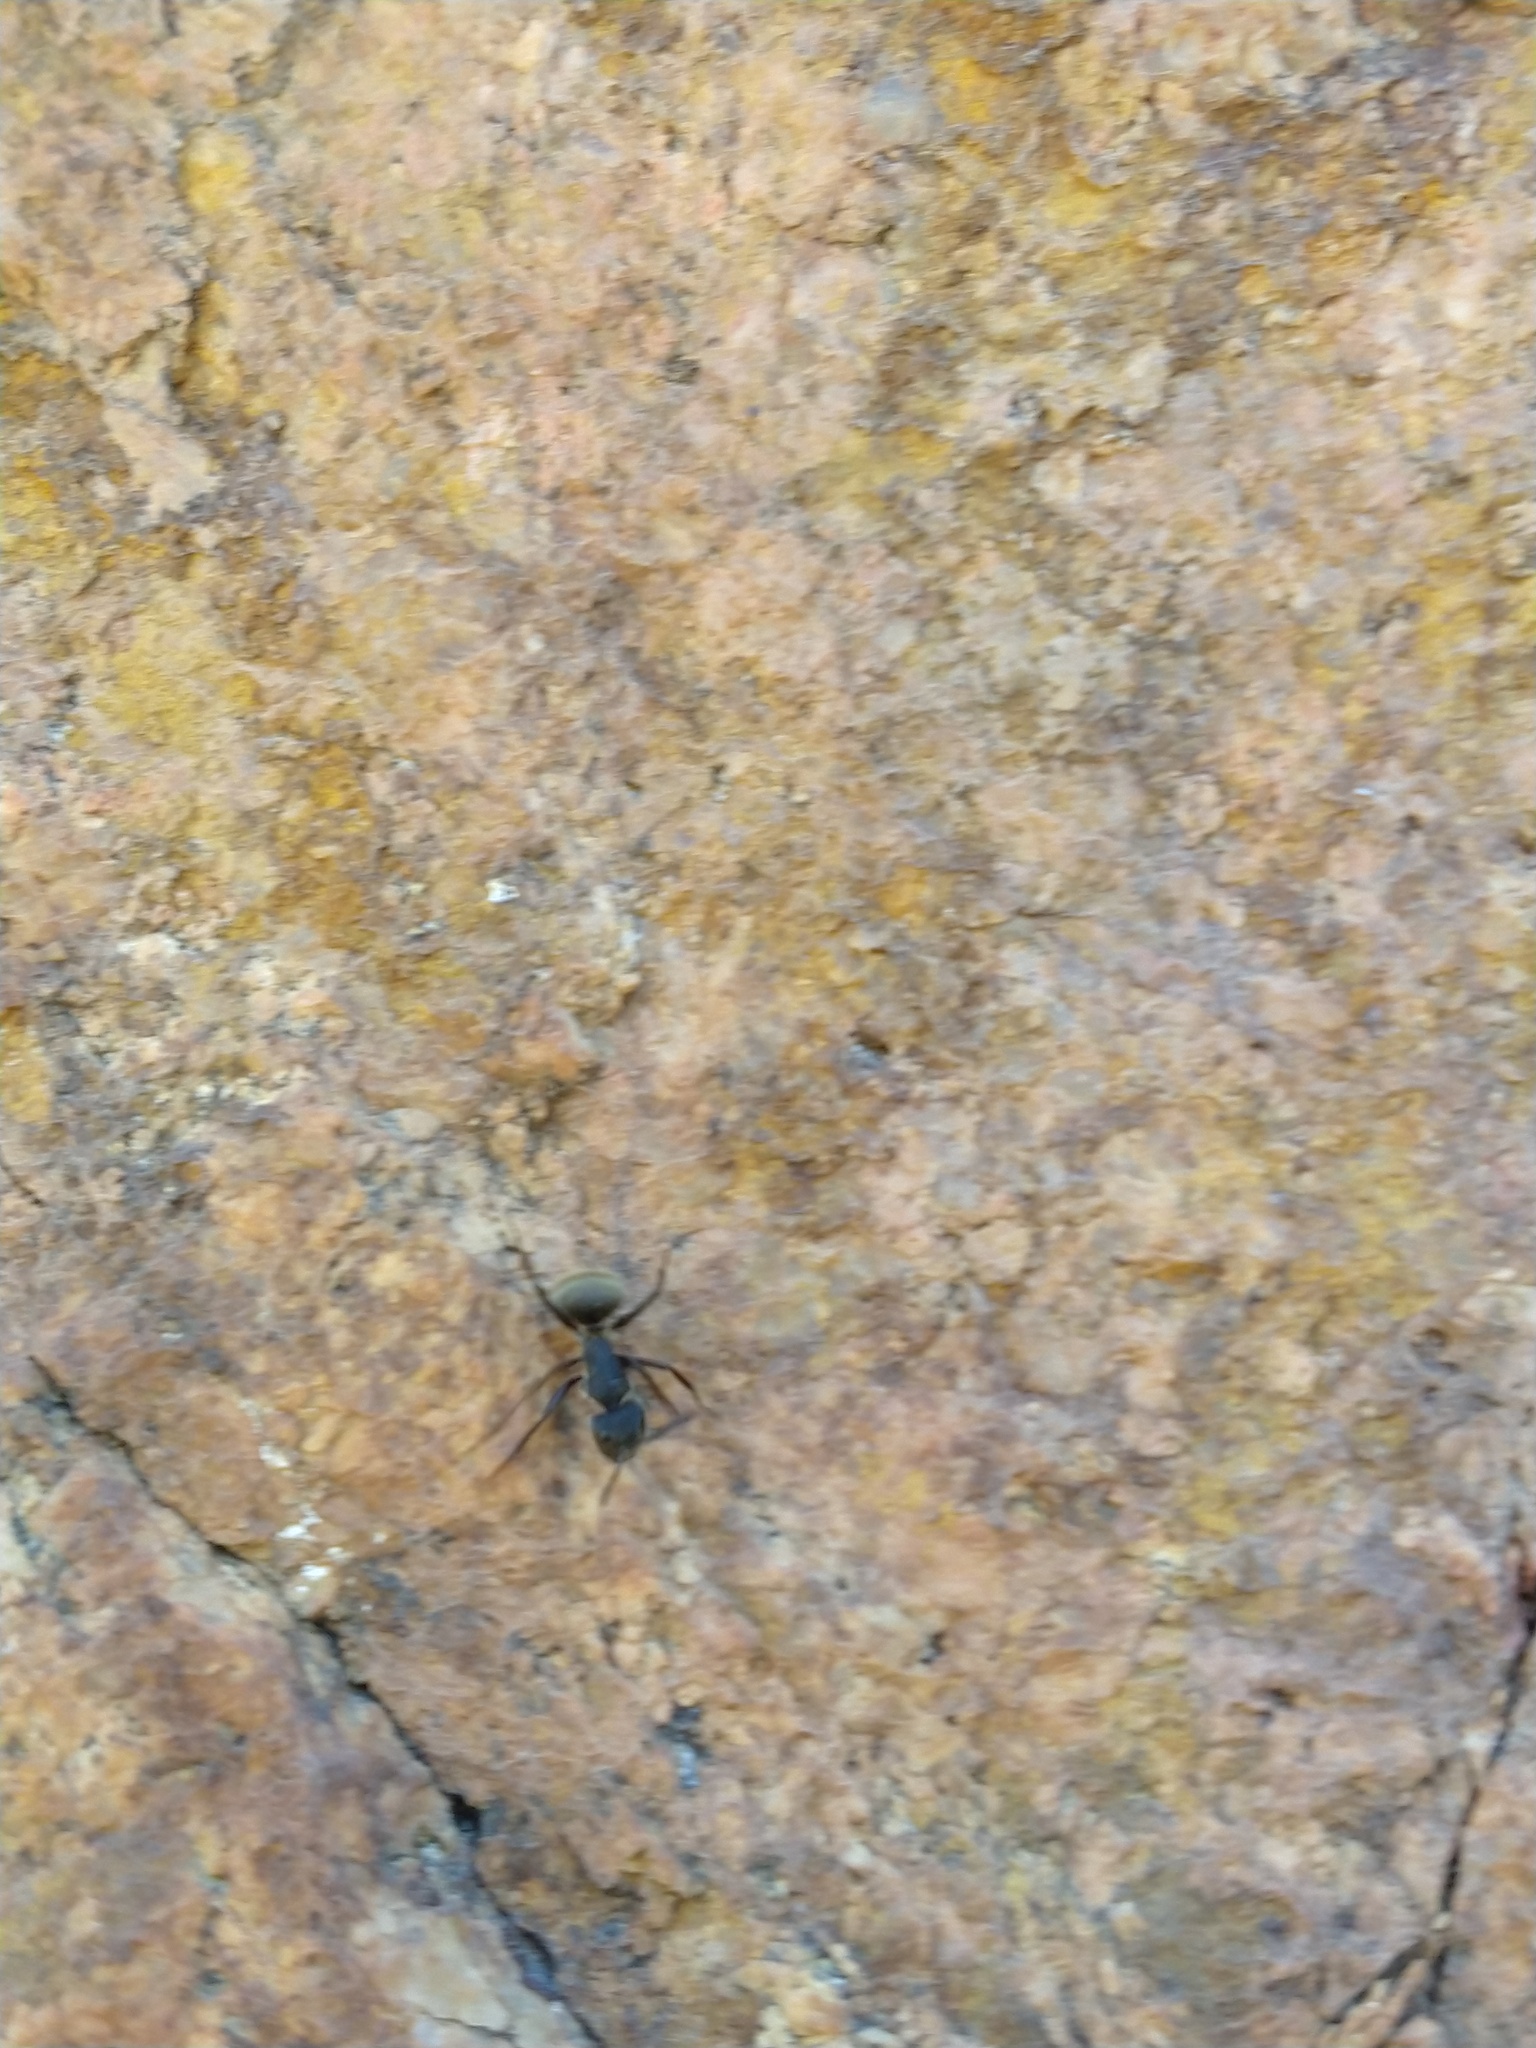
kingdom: Animalia
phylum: Arthropoda
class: Insecta
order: Hymenoptera
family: Formicidae
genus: Camponotus
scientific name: Camponotus mus
